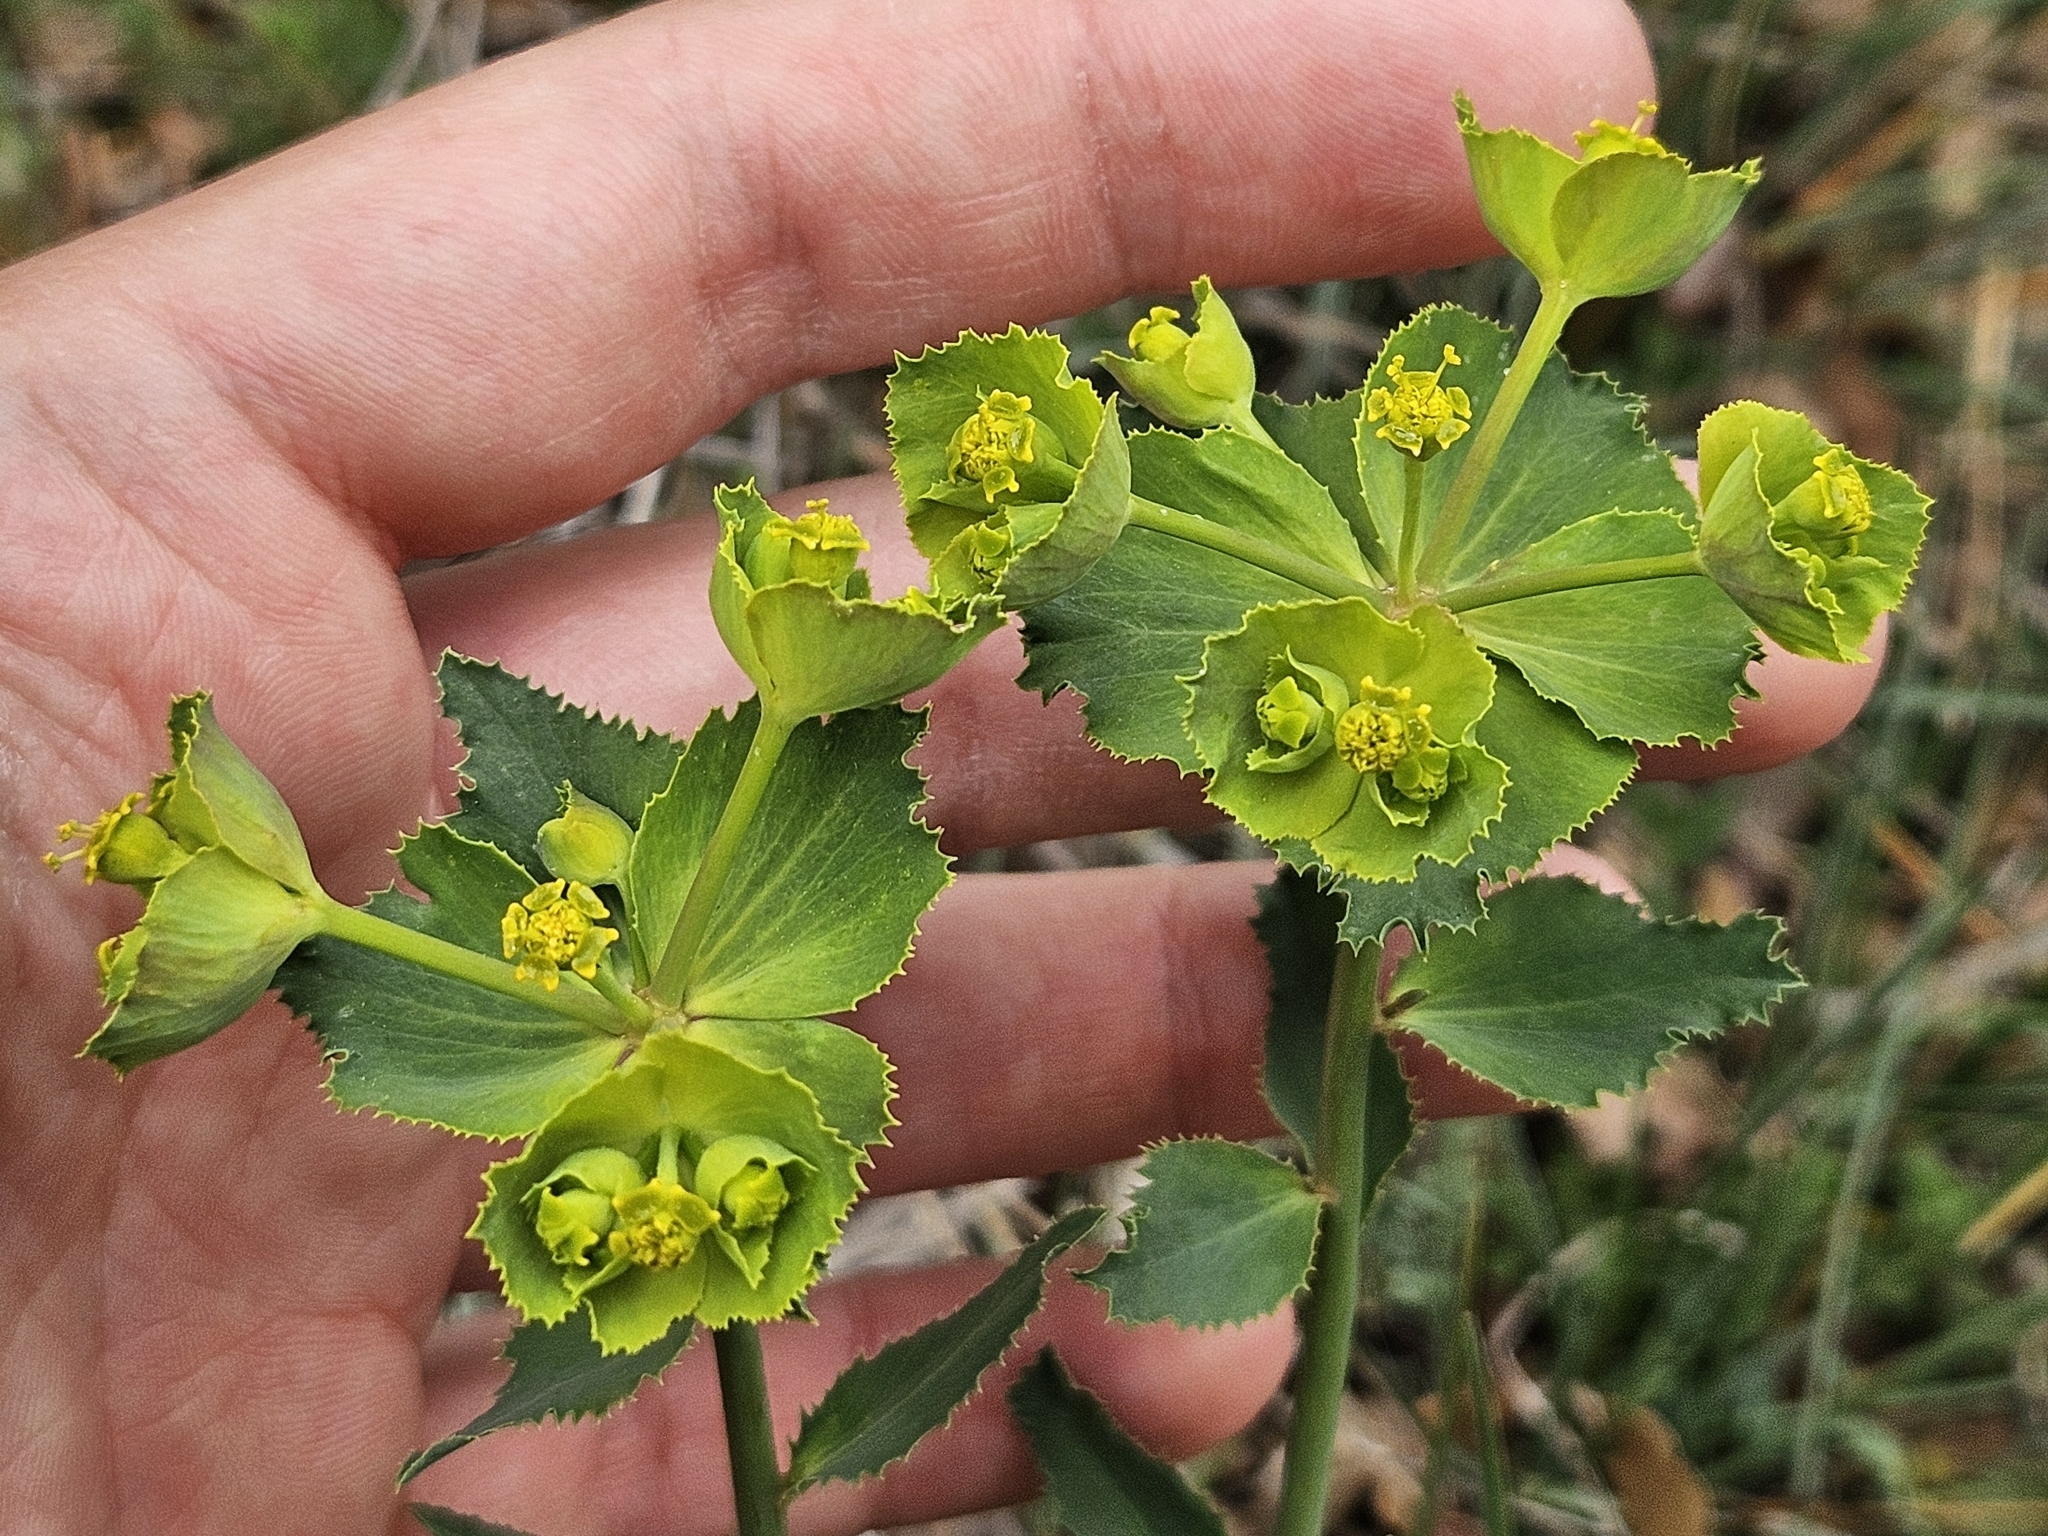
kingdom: Plantae
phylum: Tracheophyta
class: Magnoliopsida
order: Malpighiales
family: Euphorbiaceae
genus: Euphorbia
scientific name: Euphorbia serrata
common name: Serrate spurge
